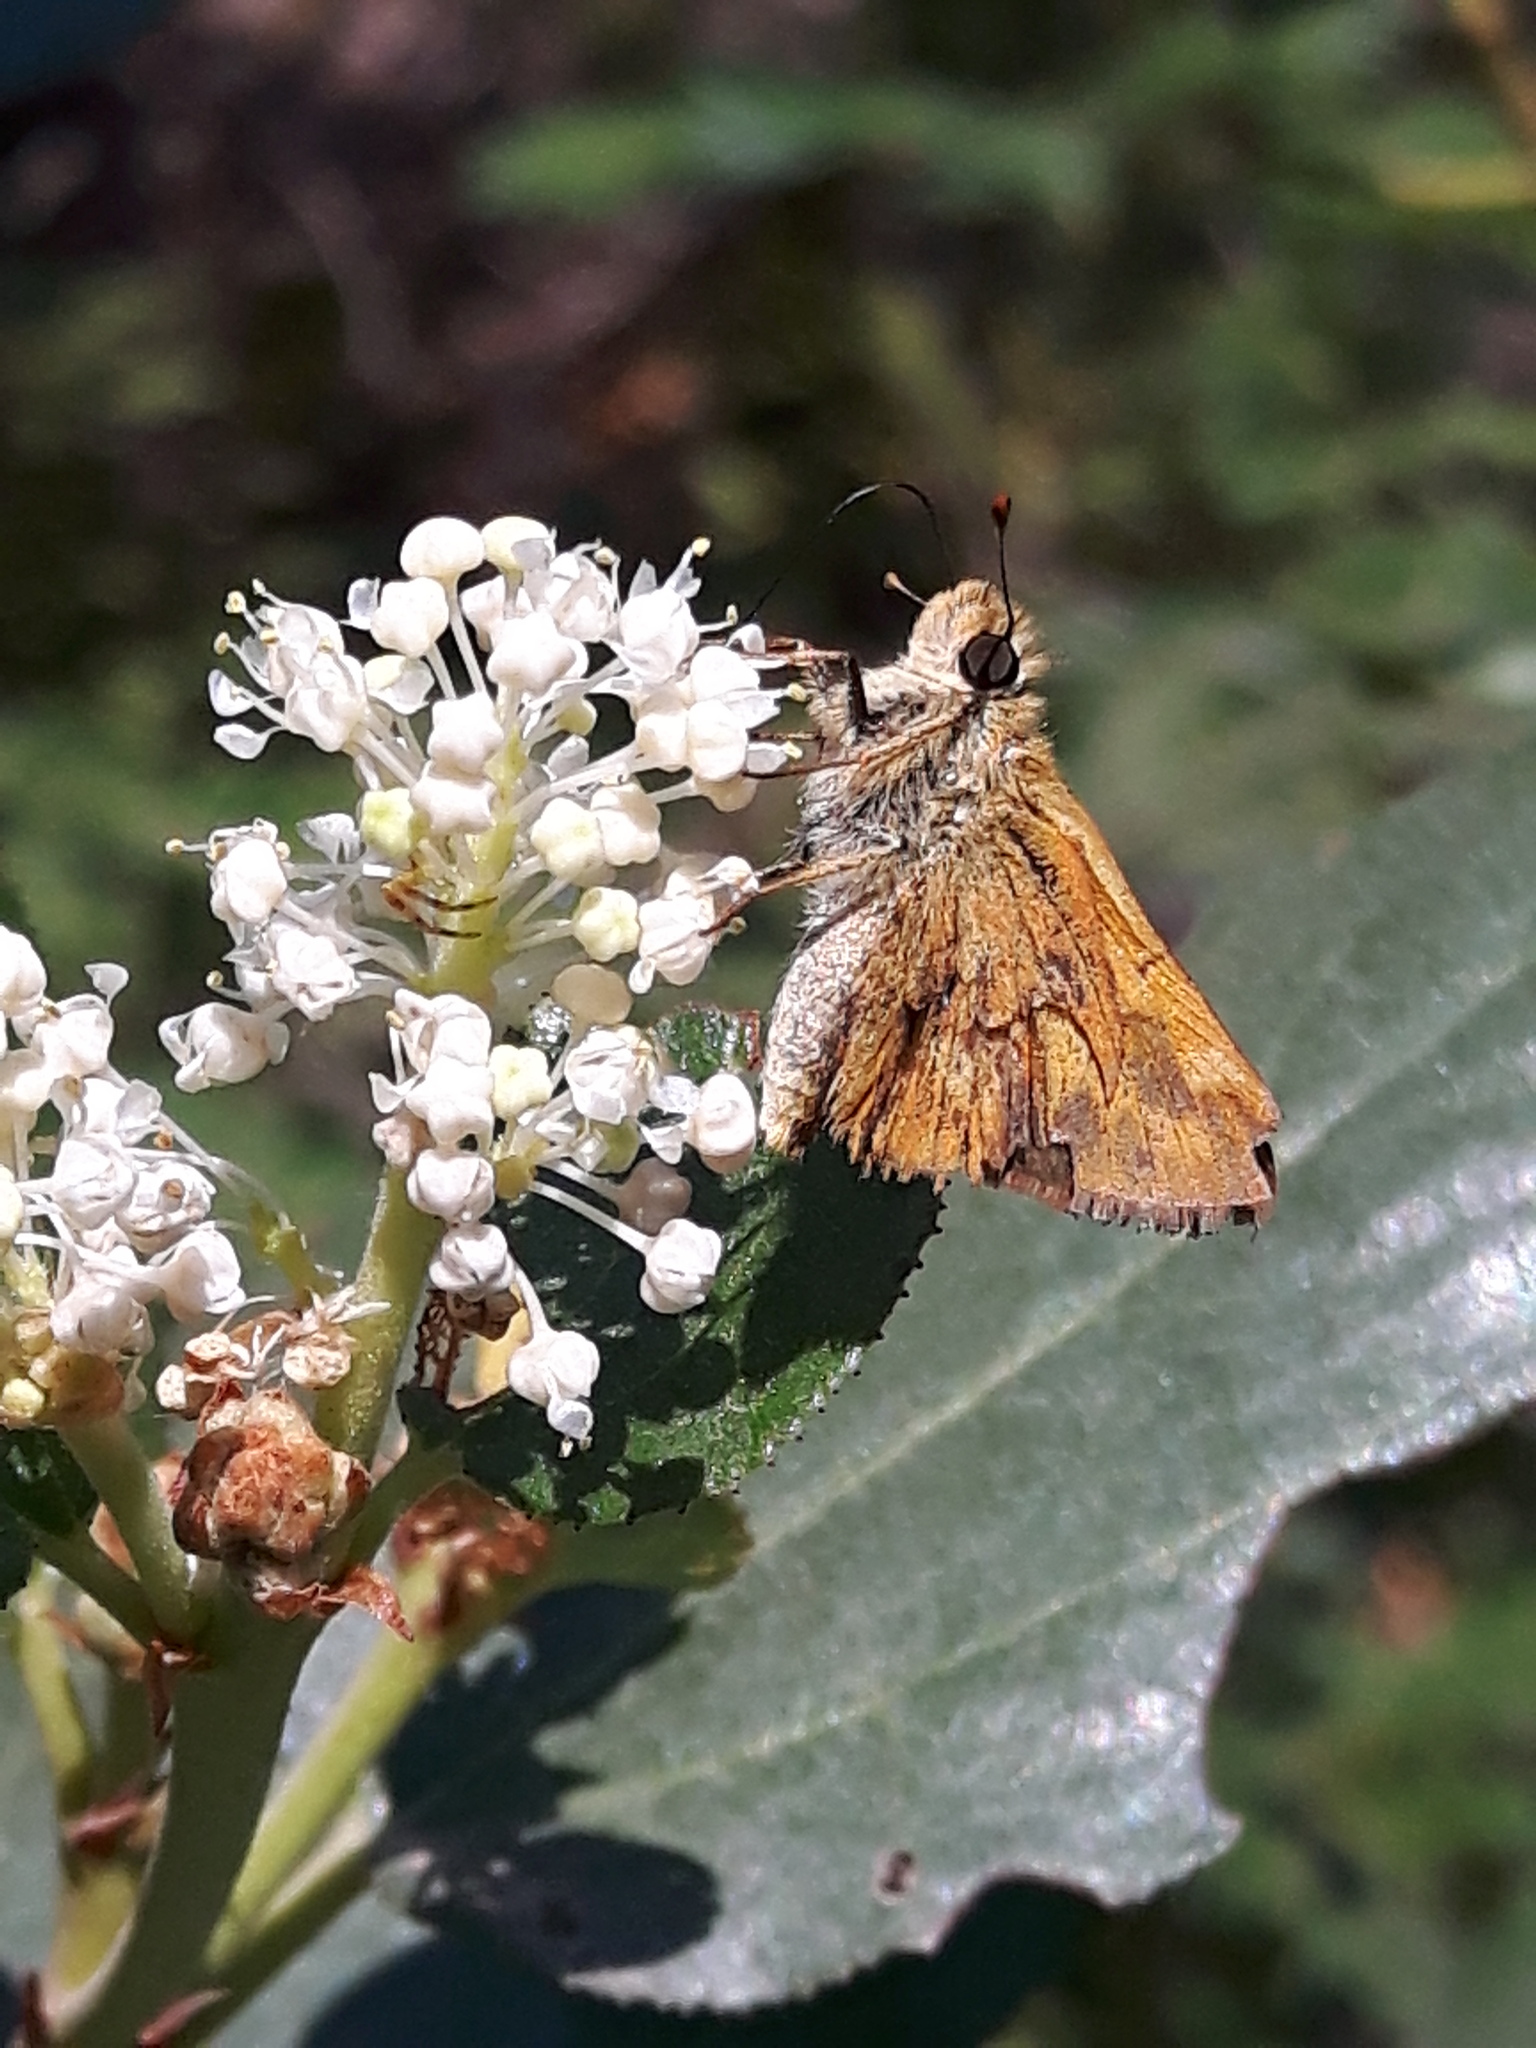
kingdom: Animalia
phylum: Arthropoda
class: Insecta
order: Lepidoptera
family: Hesperiidae
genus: Ochlodes
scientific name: Ochlodes sylvanoides
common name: Woodland skipper
